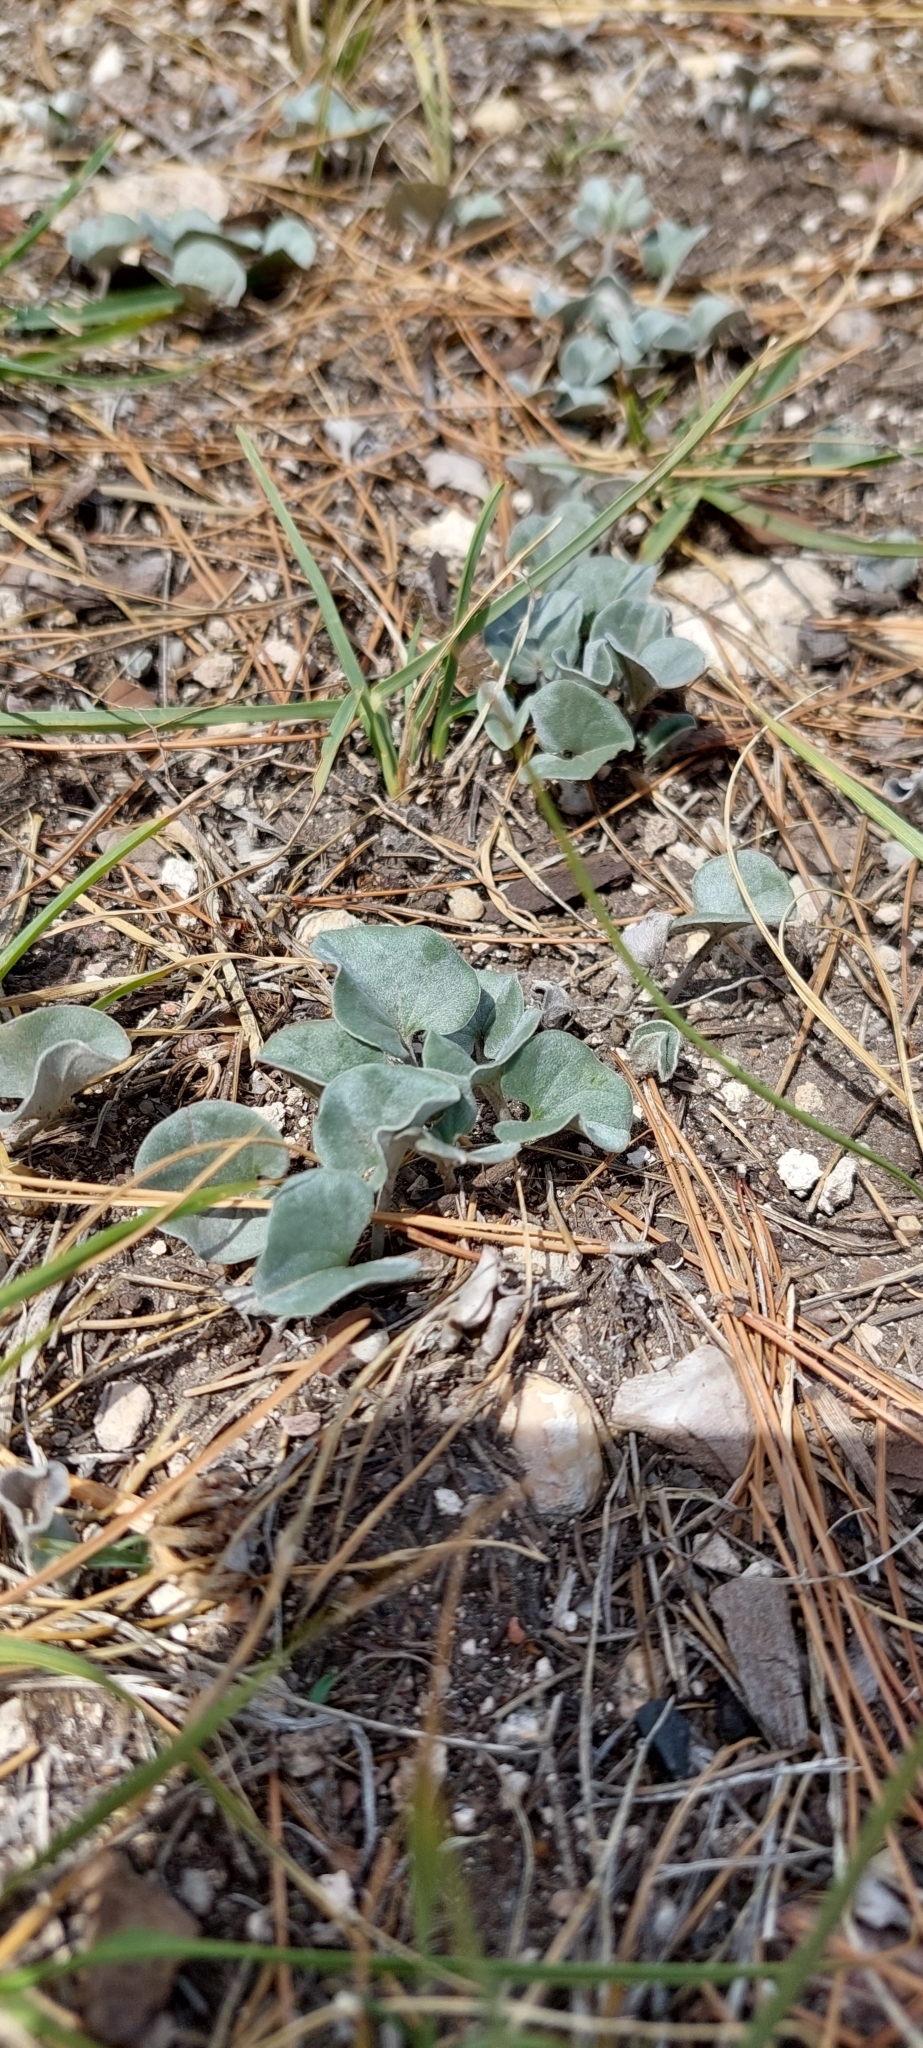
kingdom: Plantae
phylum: Tracheophyta
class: Magnoliopsida
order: Solanales
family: Convolvulaceae
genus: Dichondra
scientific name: Dichondra sericea
